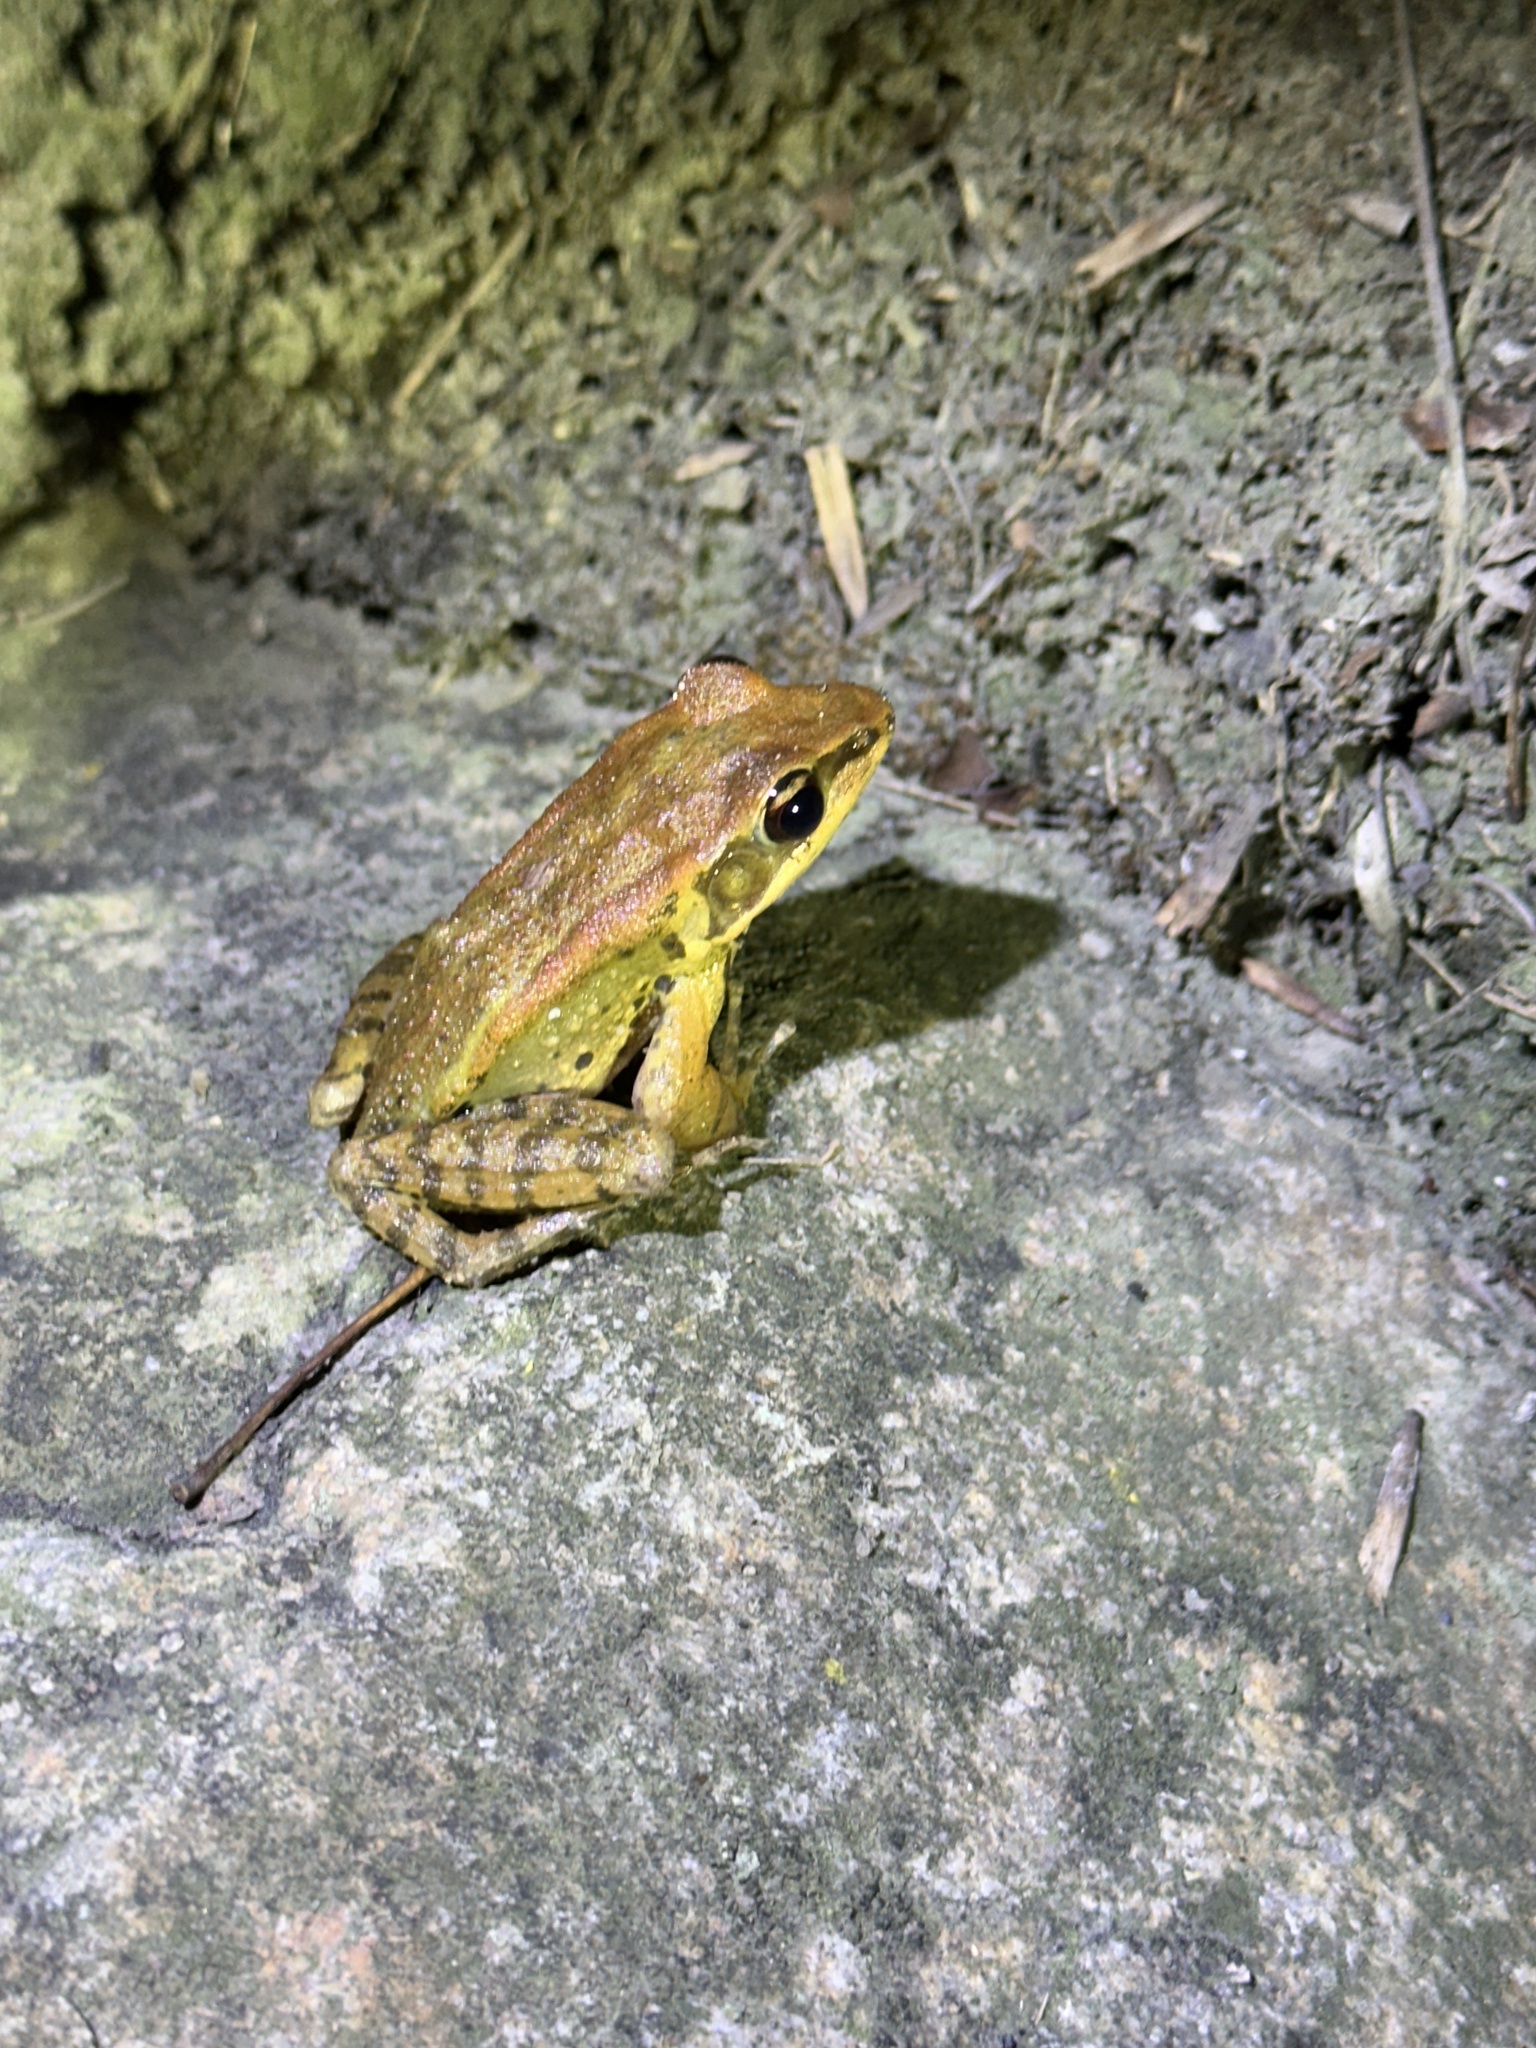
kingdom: Animalia
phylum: Chordata
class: Amphibia
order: Anura
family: Ranidae
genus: Hylarana
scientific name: Hylarana latouchii
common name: Broad-folded frog
